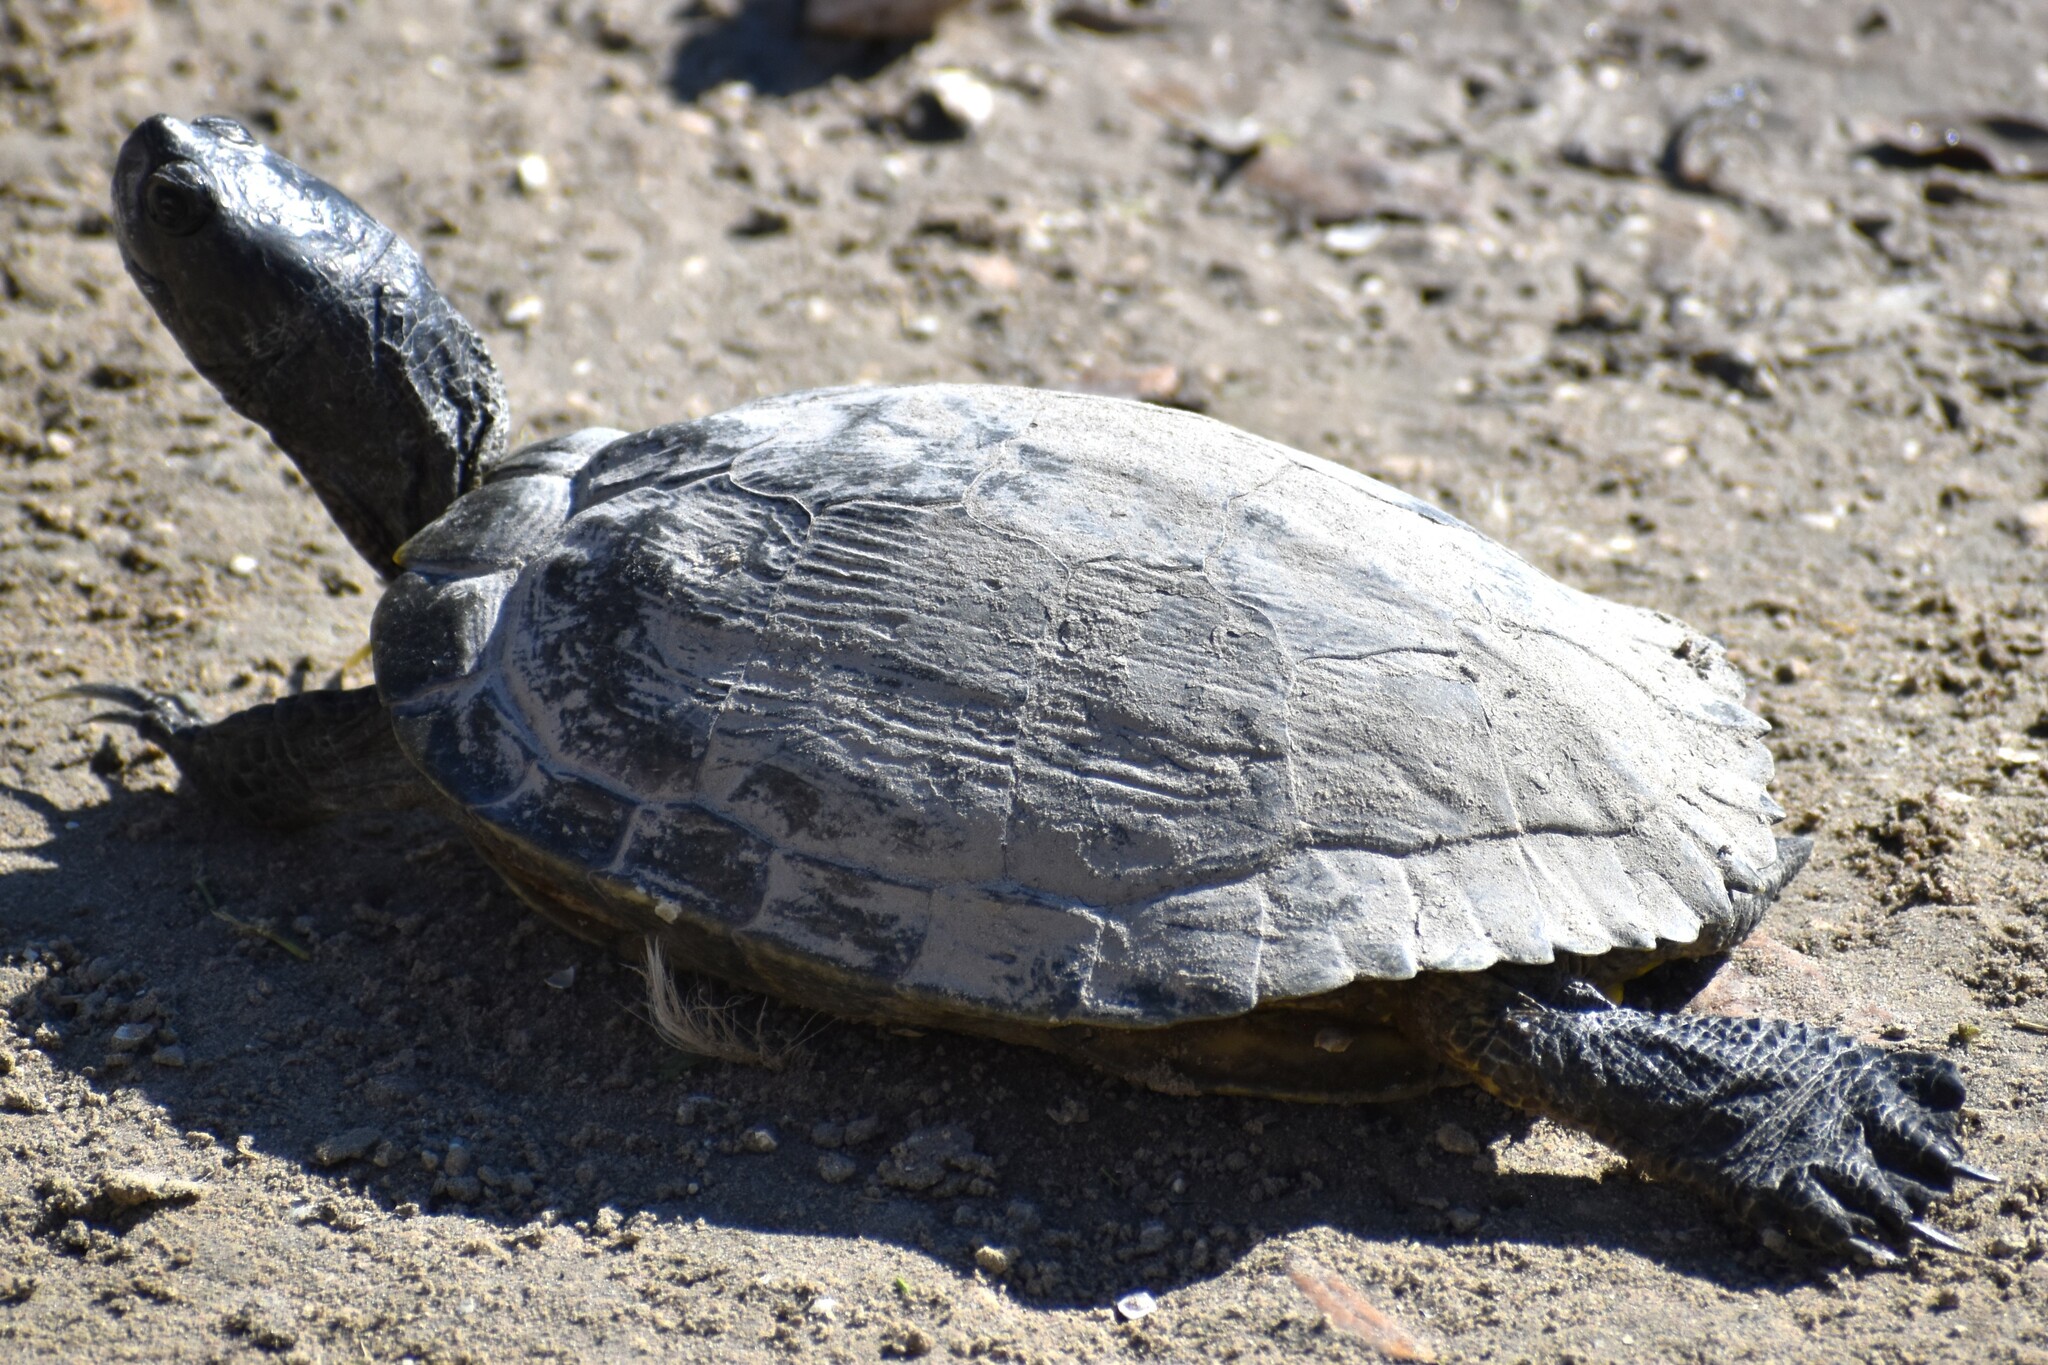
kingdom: Animalia
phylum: Chordata
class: Testudines
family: Emydidae
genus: Trachemys
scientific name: Trachemys scripta
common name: Slider
